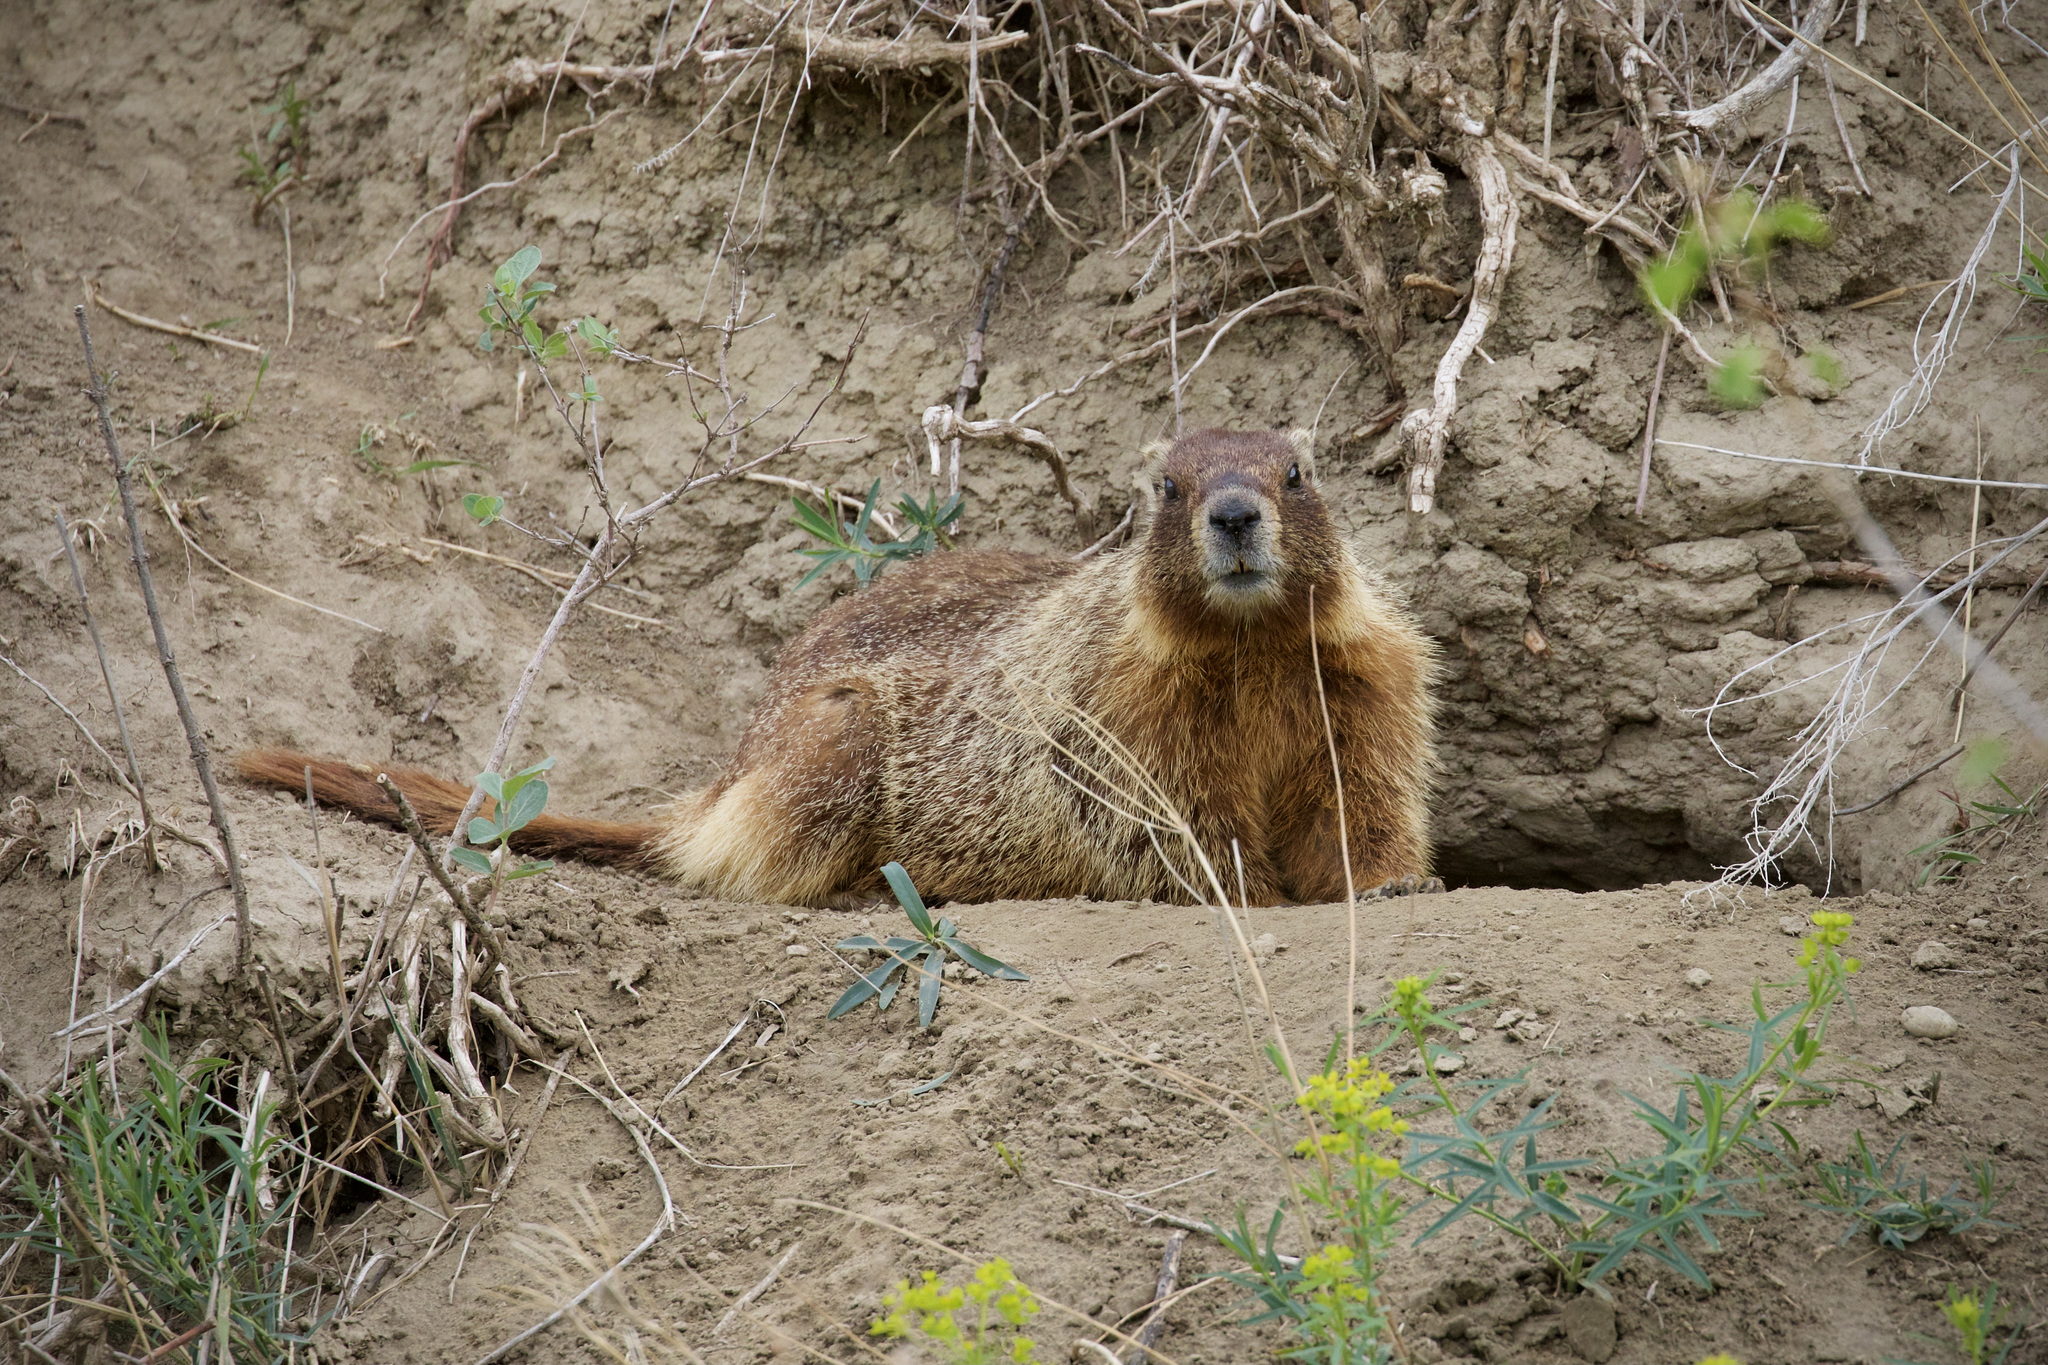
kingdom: Animalia
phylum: Chordata
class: Mammalia
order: Rodentia
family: Sciuridae
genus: Marmota
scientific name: Marmota flaviventris
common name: Yellow-bellied marmot
